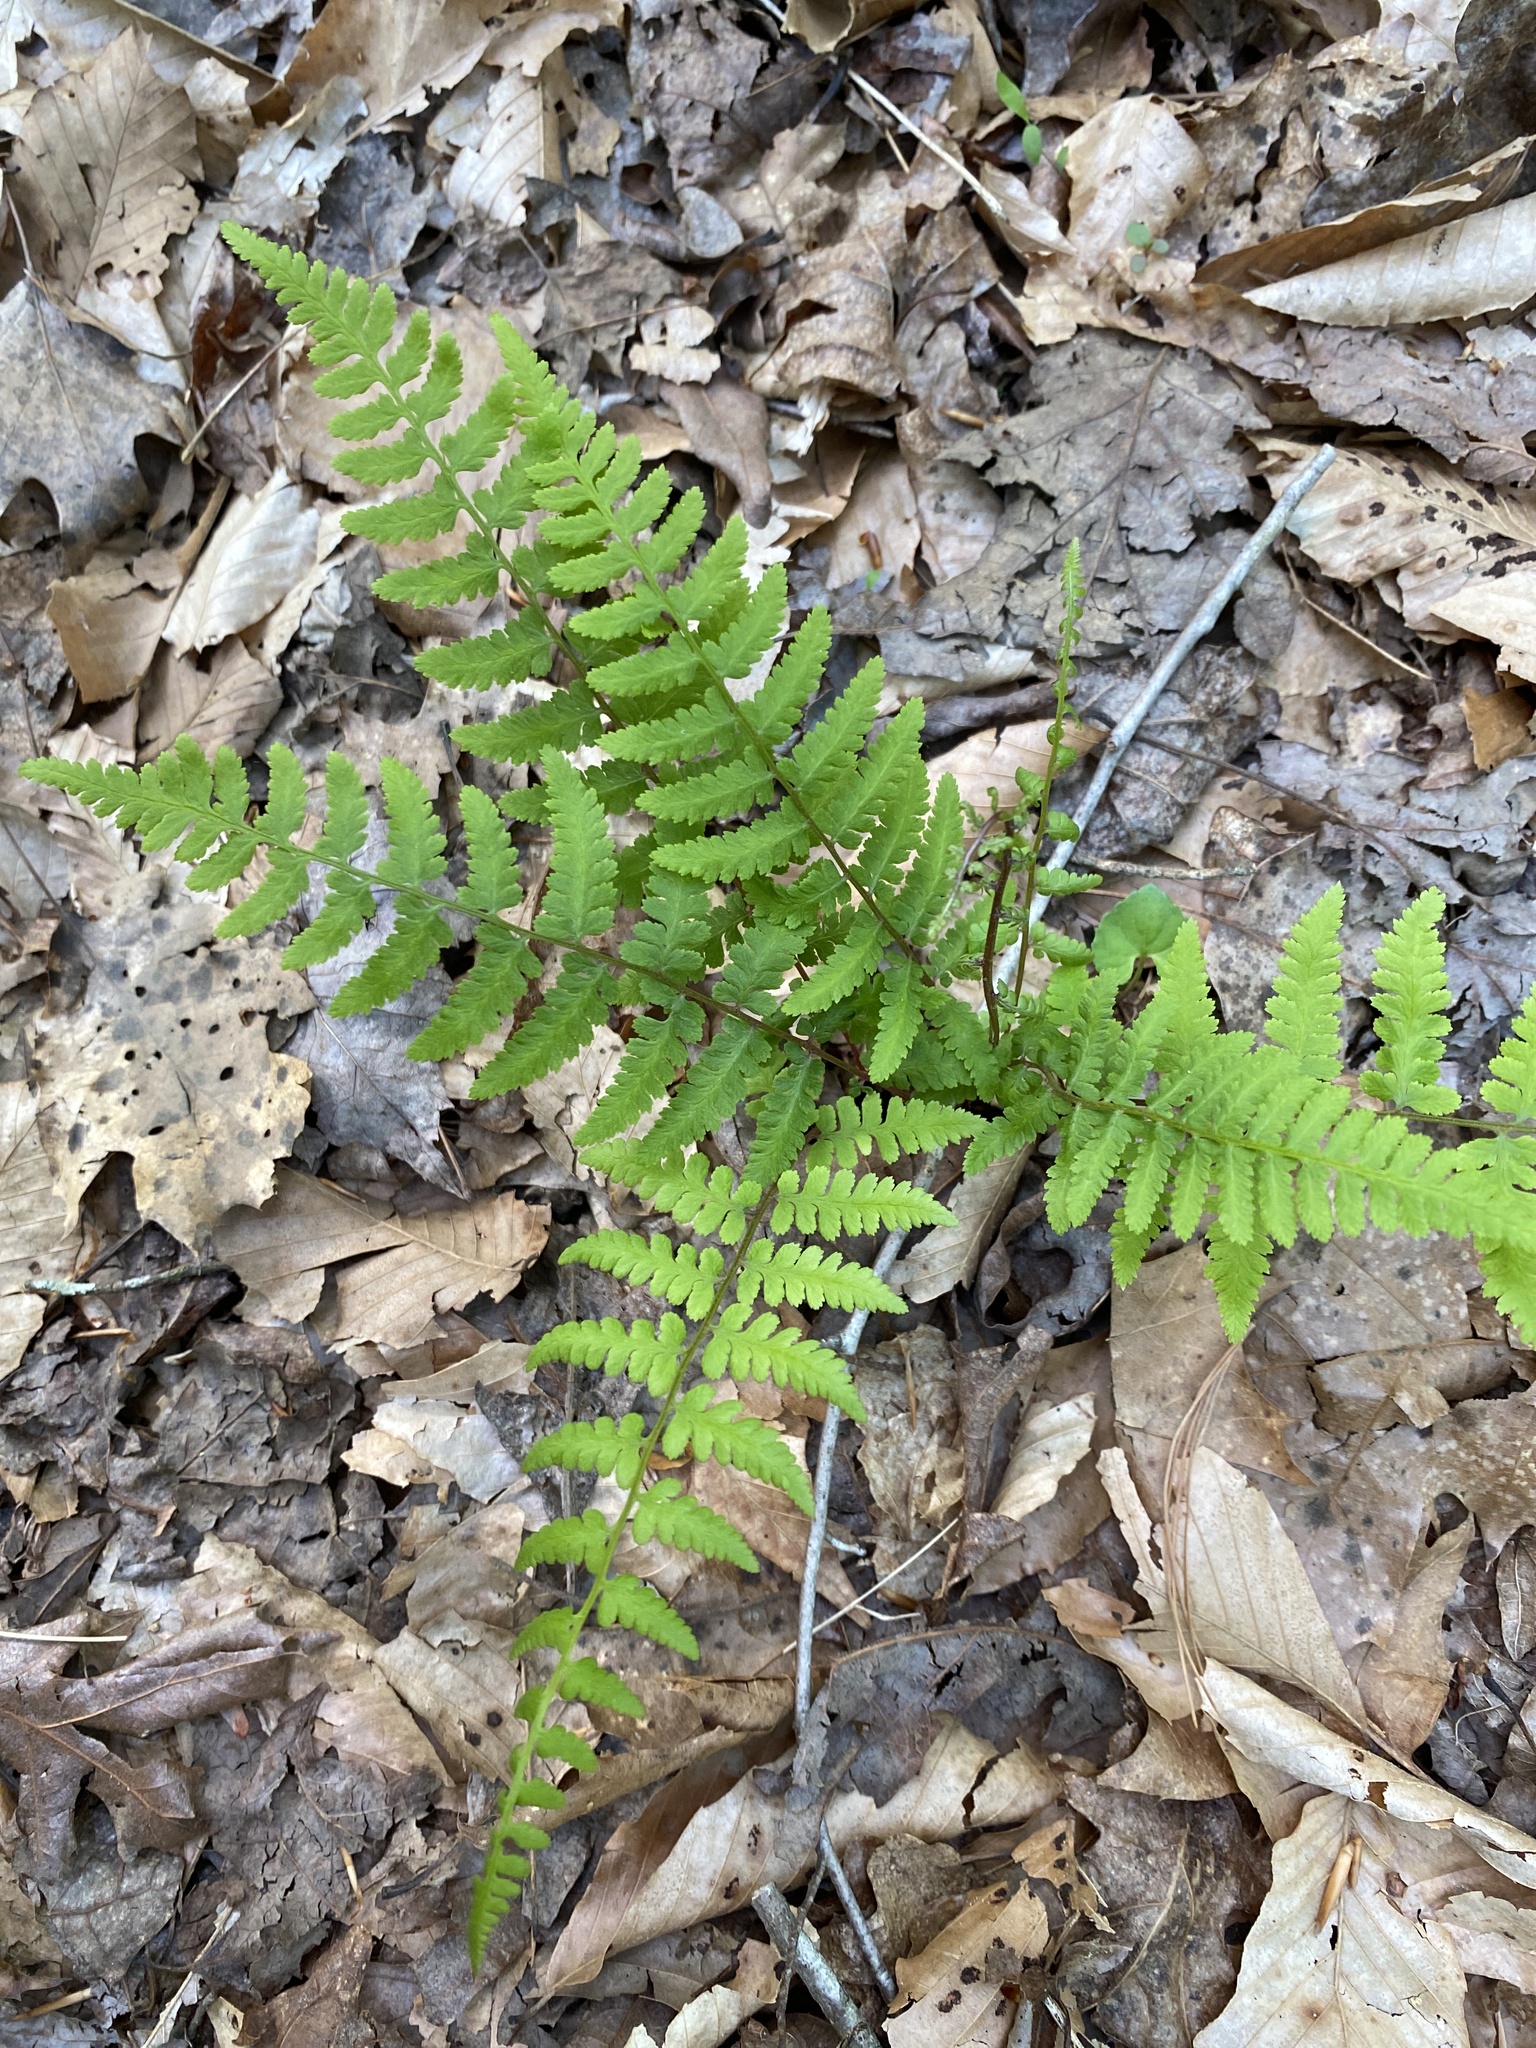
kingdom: Plantae
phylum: Tracheophyta
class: Polypodiopsida
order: Polypodiales
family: Athyriaceae
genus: Athyrium
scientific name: Athyrium asplenioides
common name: Southern lady fern
